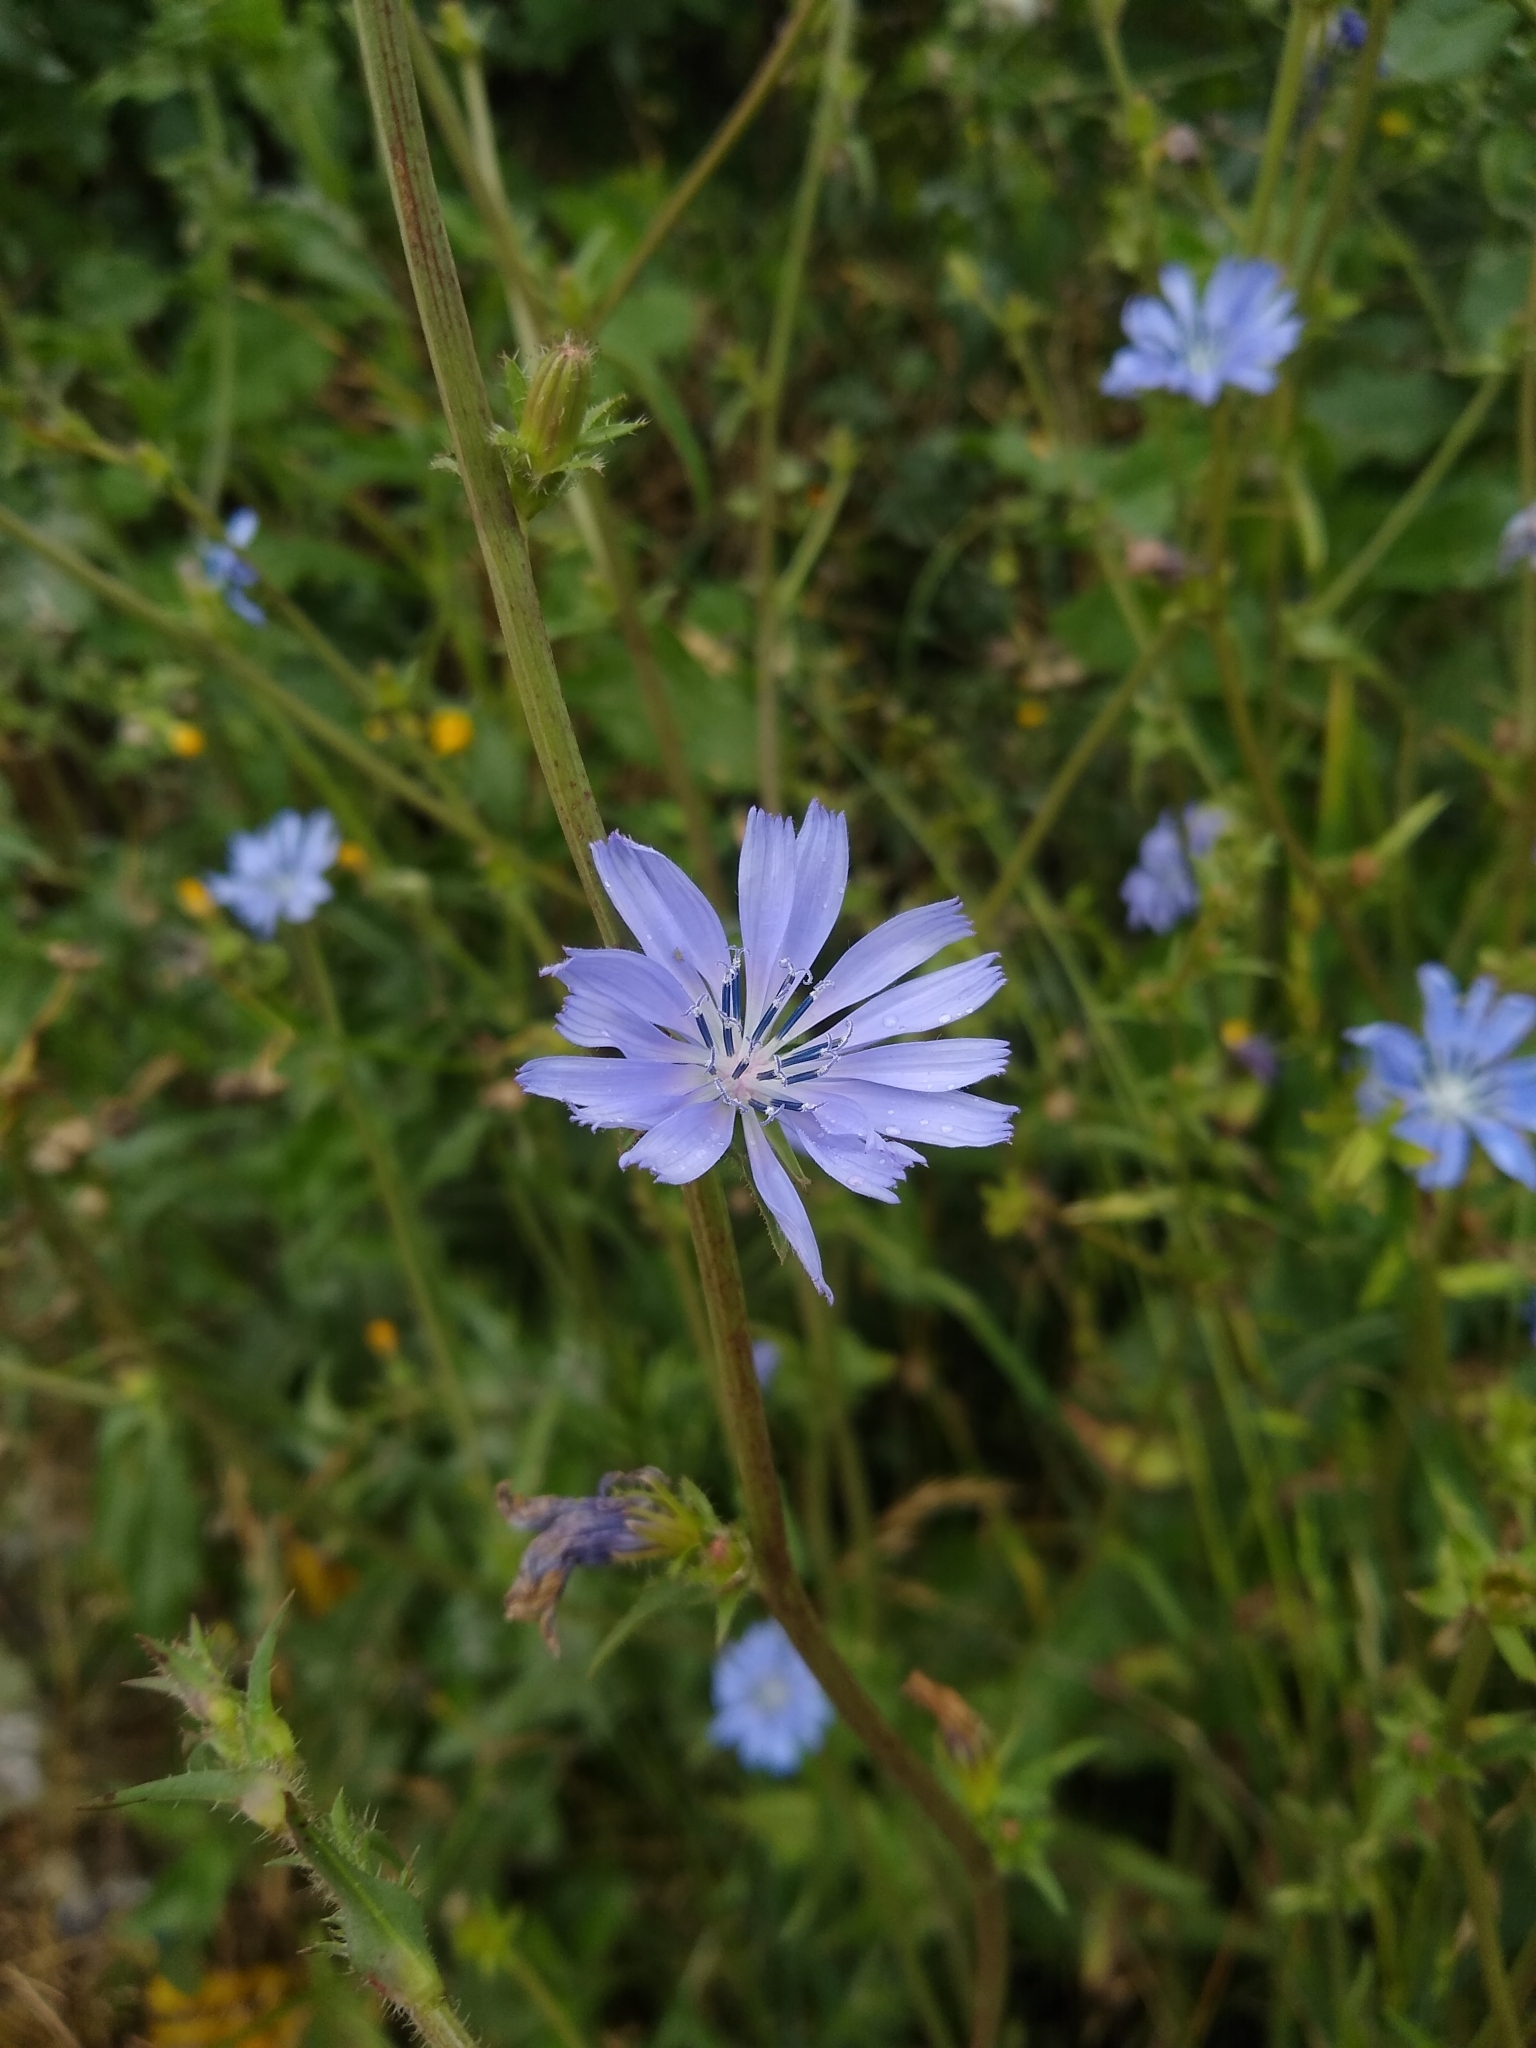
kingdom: Plantae
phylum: Tracheophyta
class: Magnoliopsida
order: Asterales
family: Asteraceae
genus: Cichorium
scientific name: Cichorium intybus
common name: Chicory
